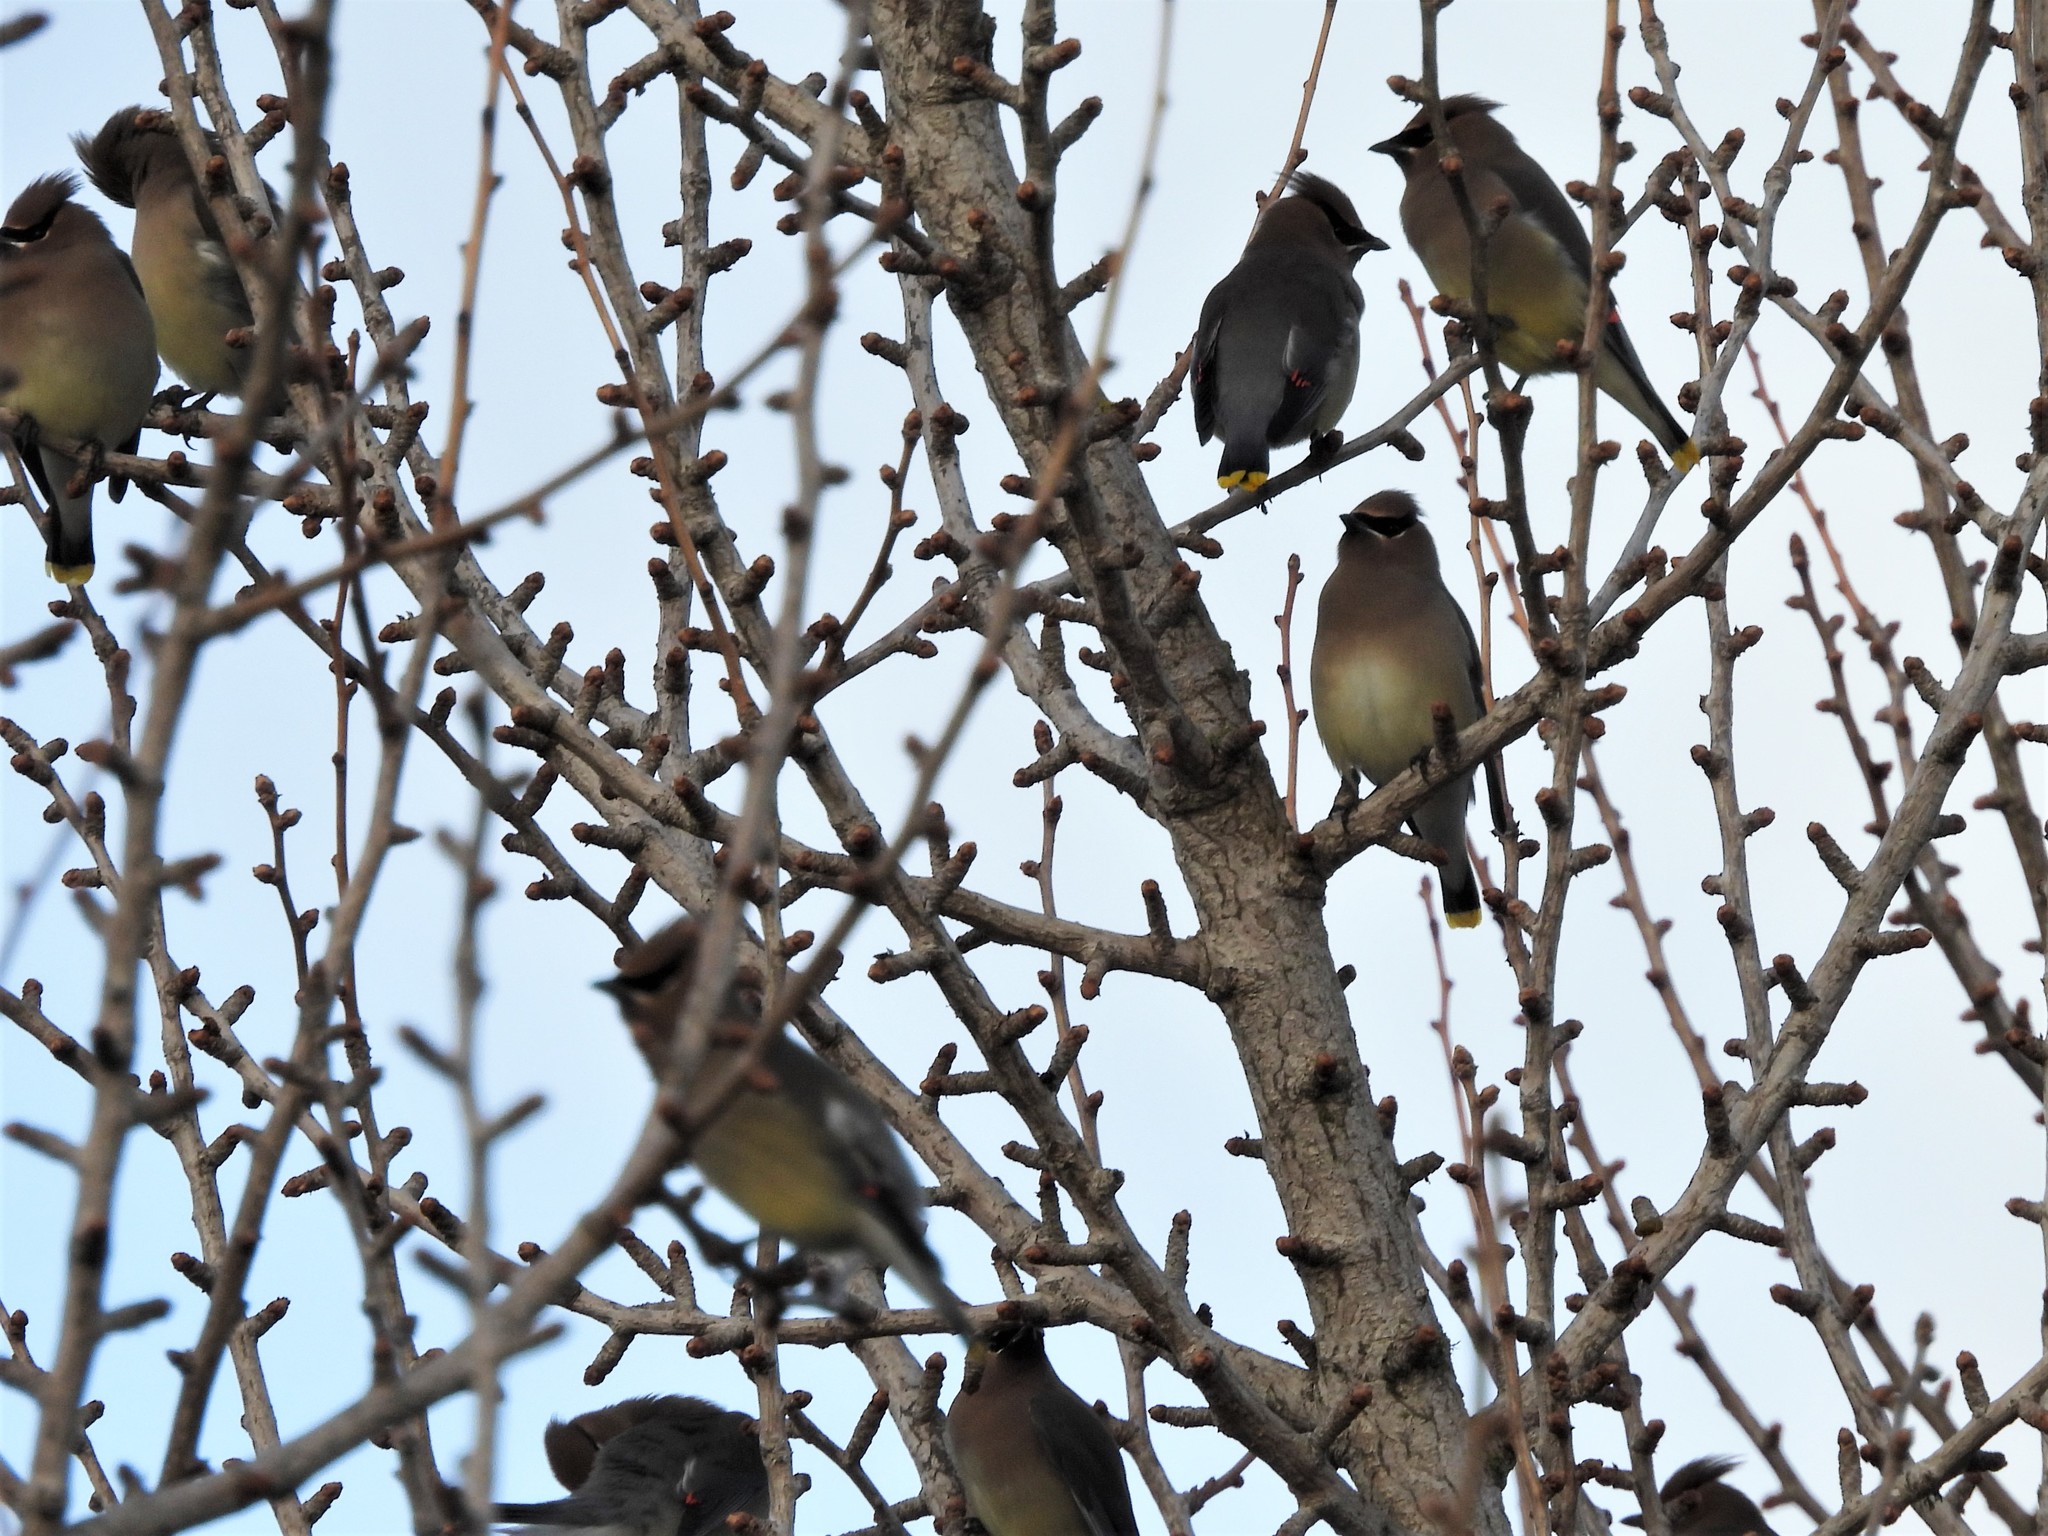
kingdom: Animalia
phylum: Chordata
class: Aves
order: Passeriformes
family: Bombycillidae
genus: Bombycilla
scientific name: Bombycilla cedrorum
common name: Cedar waxwing
